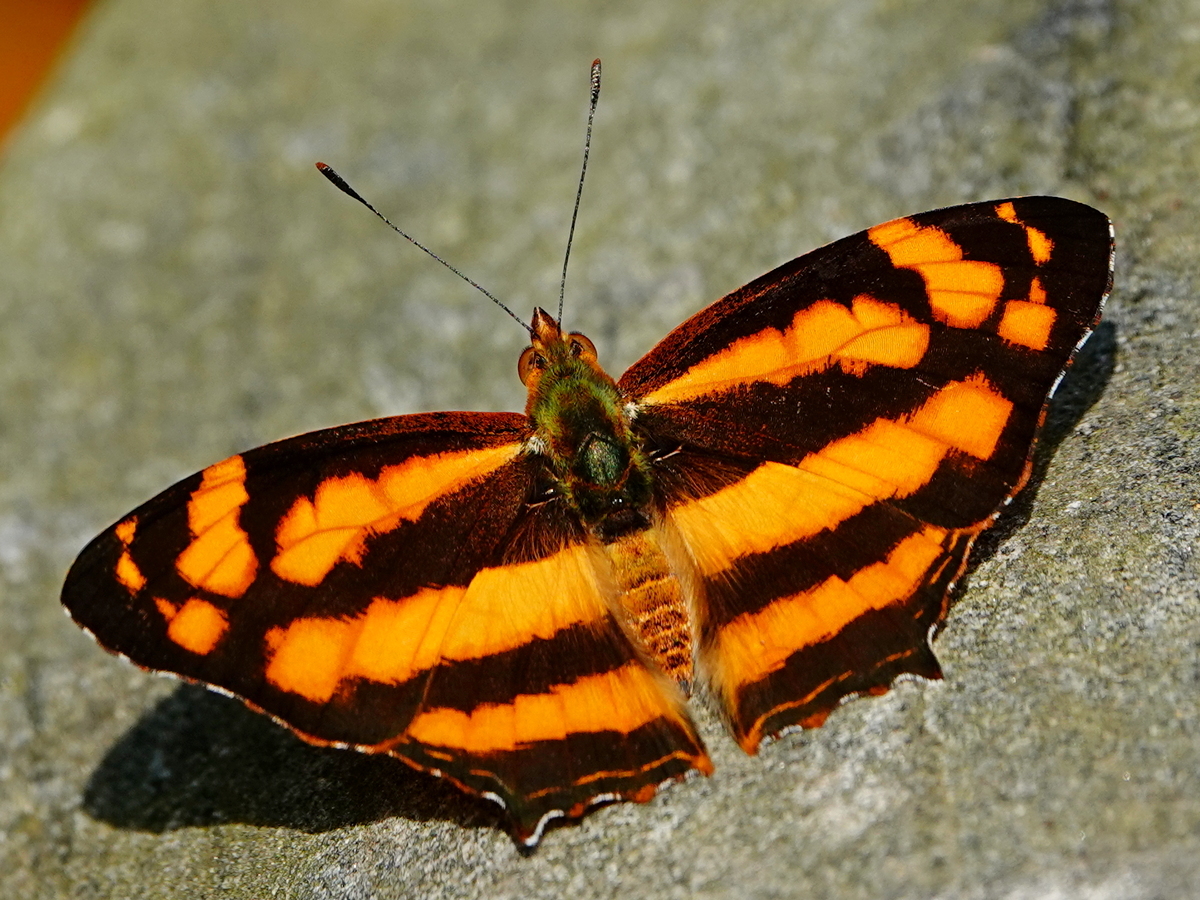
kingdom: Animalia
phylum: Arthropoda
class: Insecta
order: Lepidoptera
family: Nymphalidae
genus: Symbrenthia
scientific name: Symbrenthia hypselis
